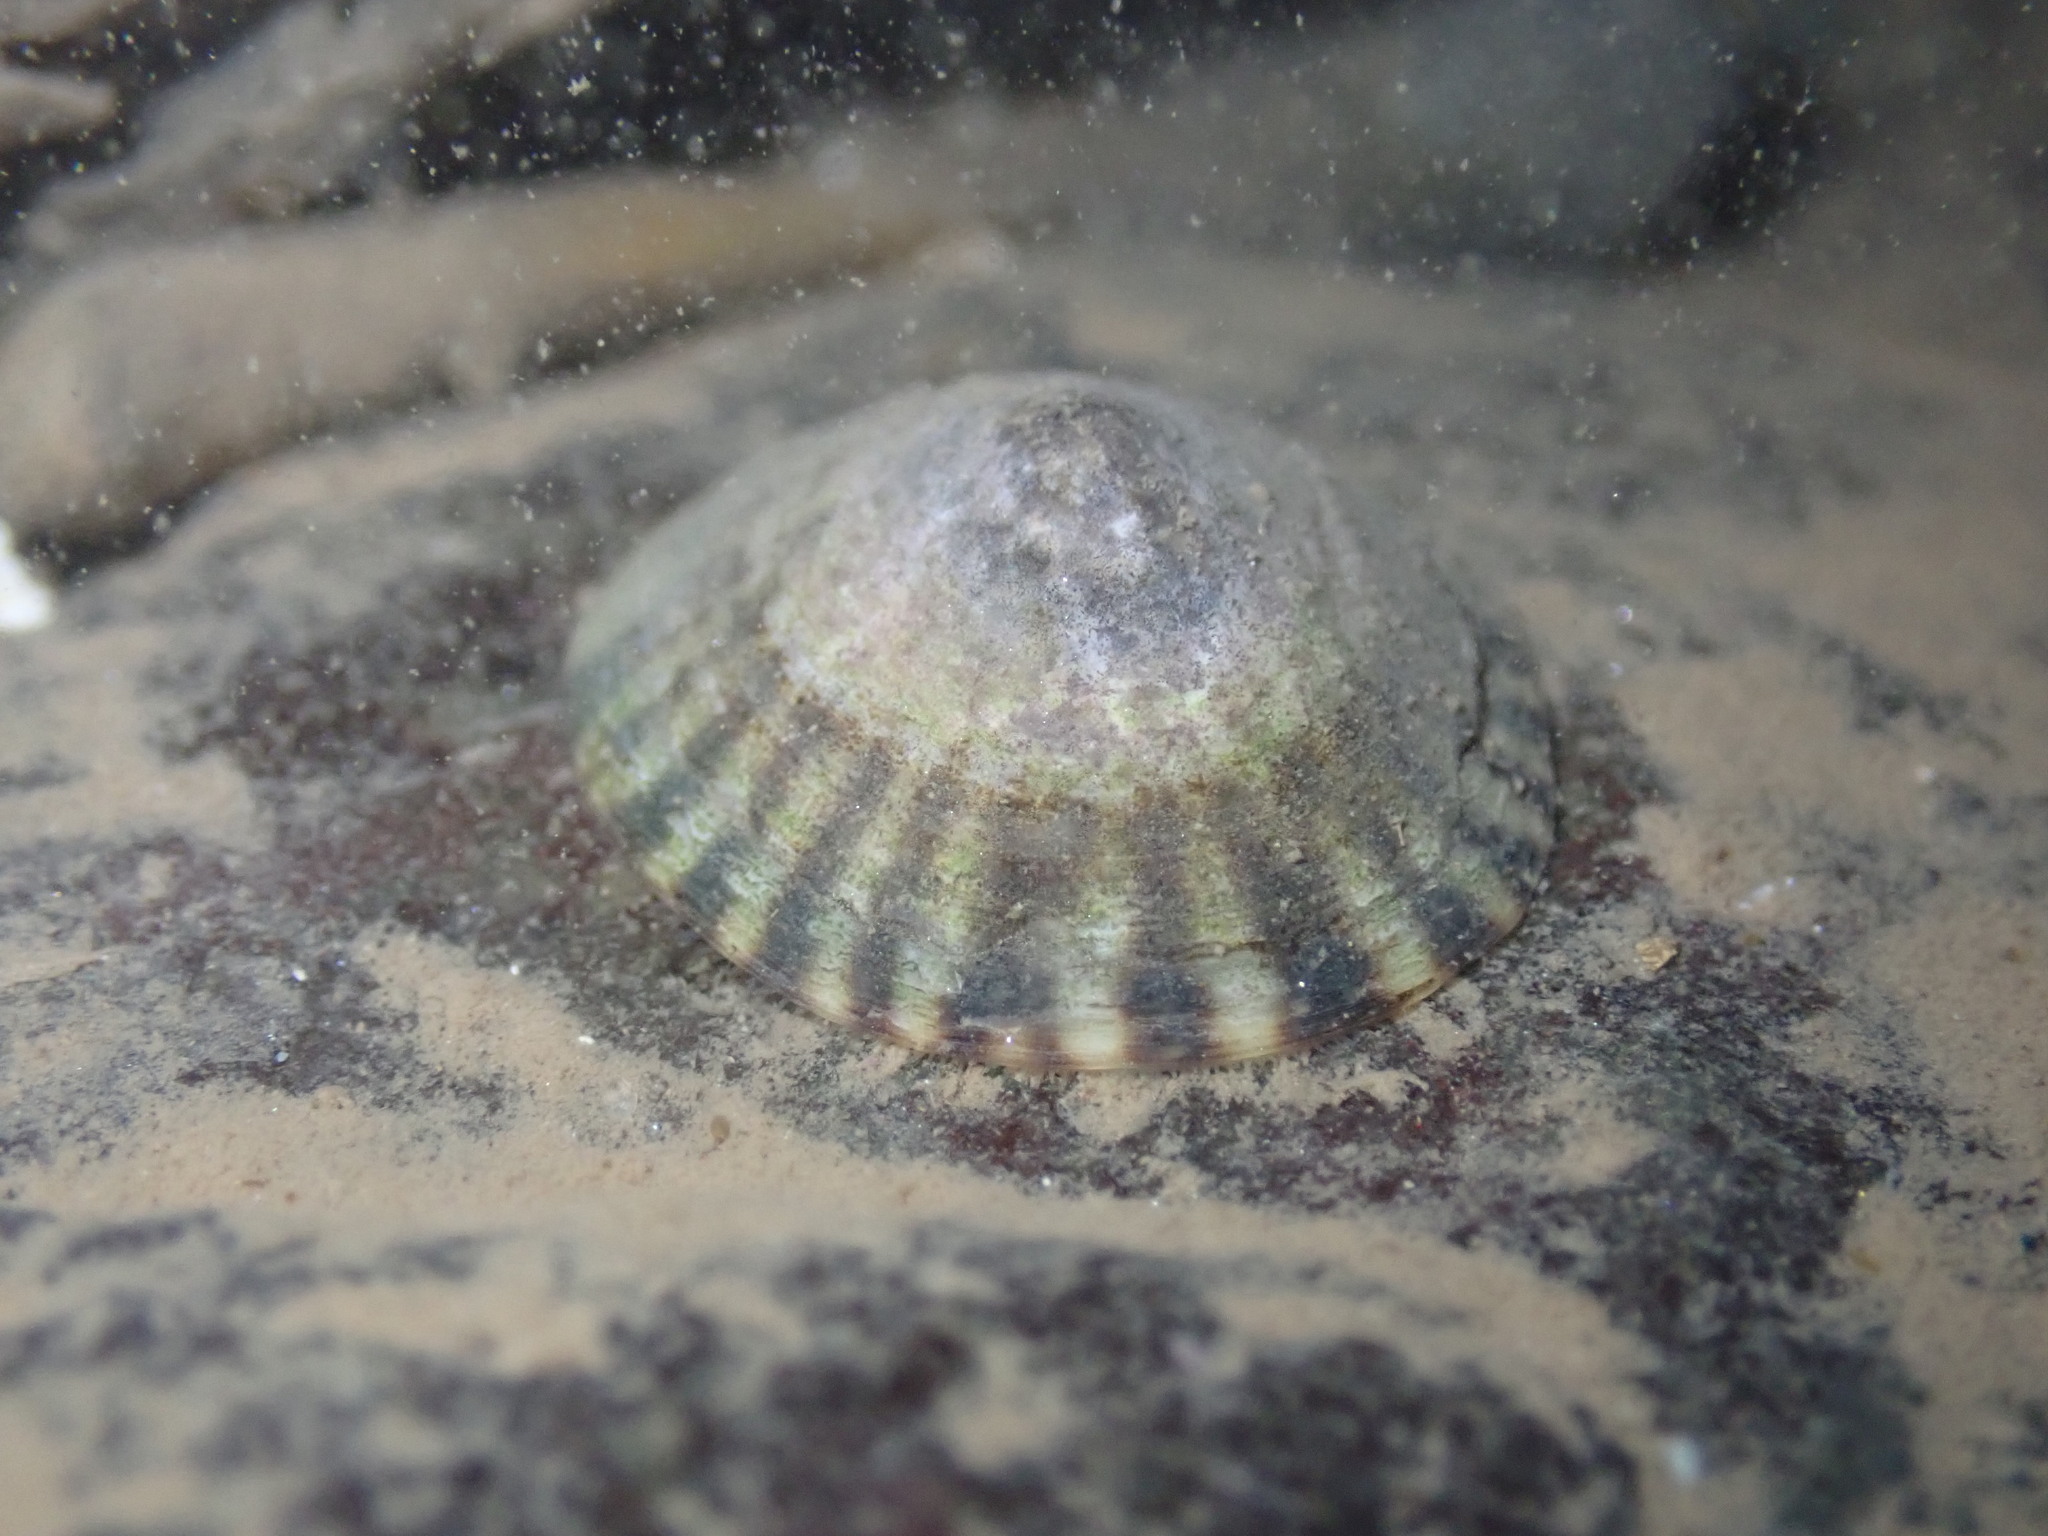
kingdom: Animalia
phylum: Mollusca
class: Gastropoda
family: Lottiidae
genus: Testudinalia
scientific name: Testudinalia testudinalis
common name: Common tortoiseshell limpet
